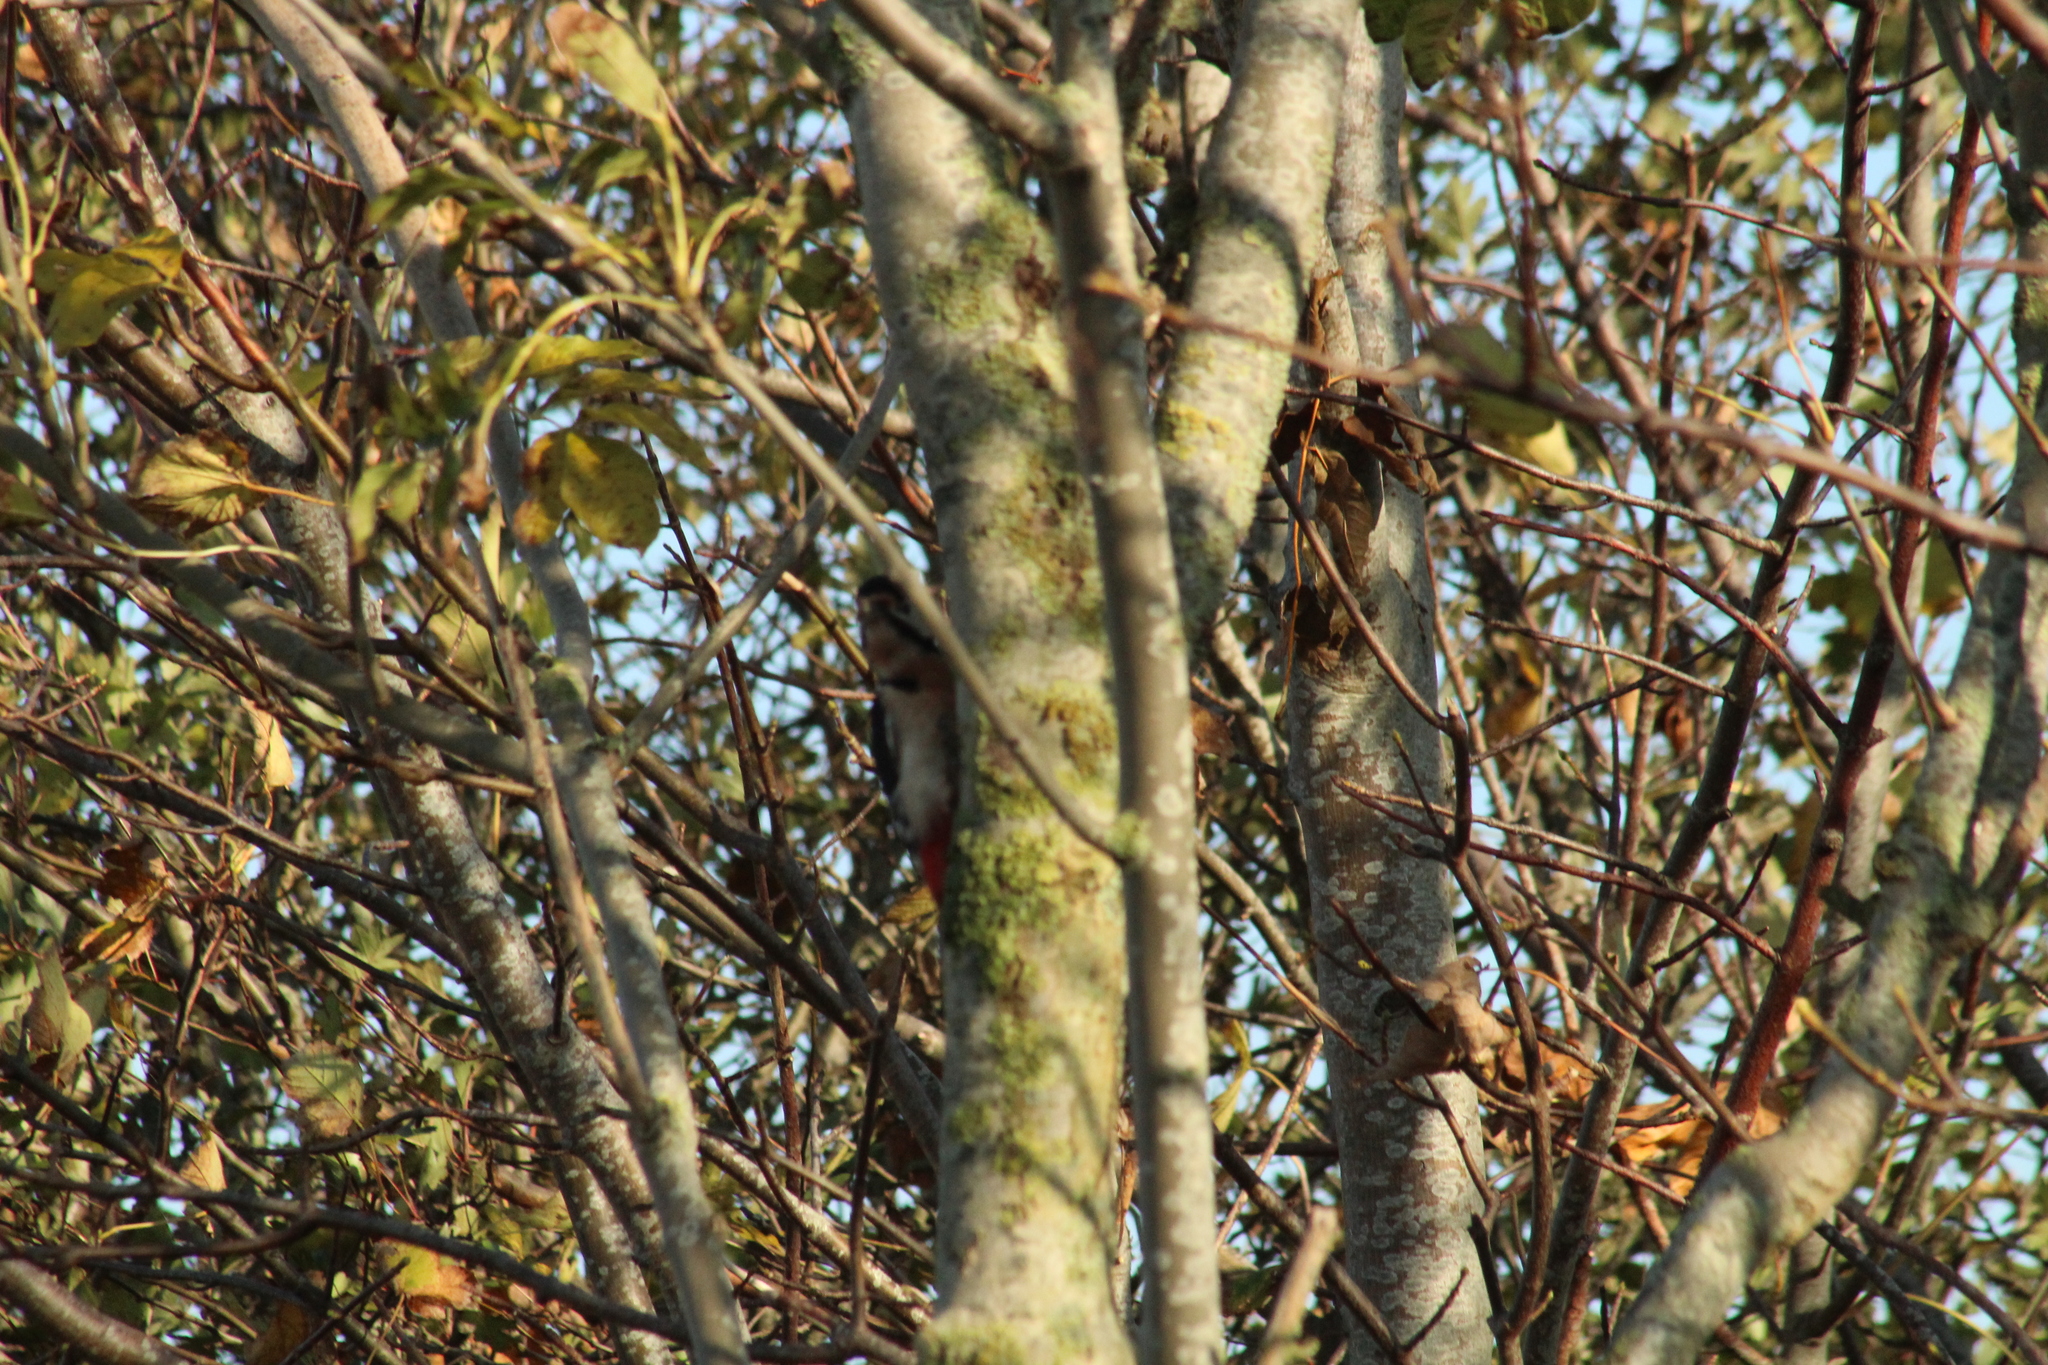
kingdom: Animalia
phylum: Chordata
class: Aves
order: Piciformes
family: Picidae
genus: Dendrocopos
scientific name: Dendrocopos major
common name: Great spotted woodpecker
